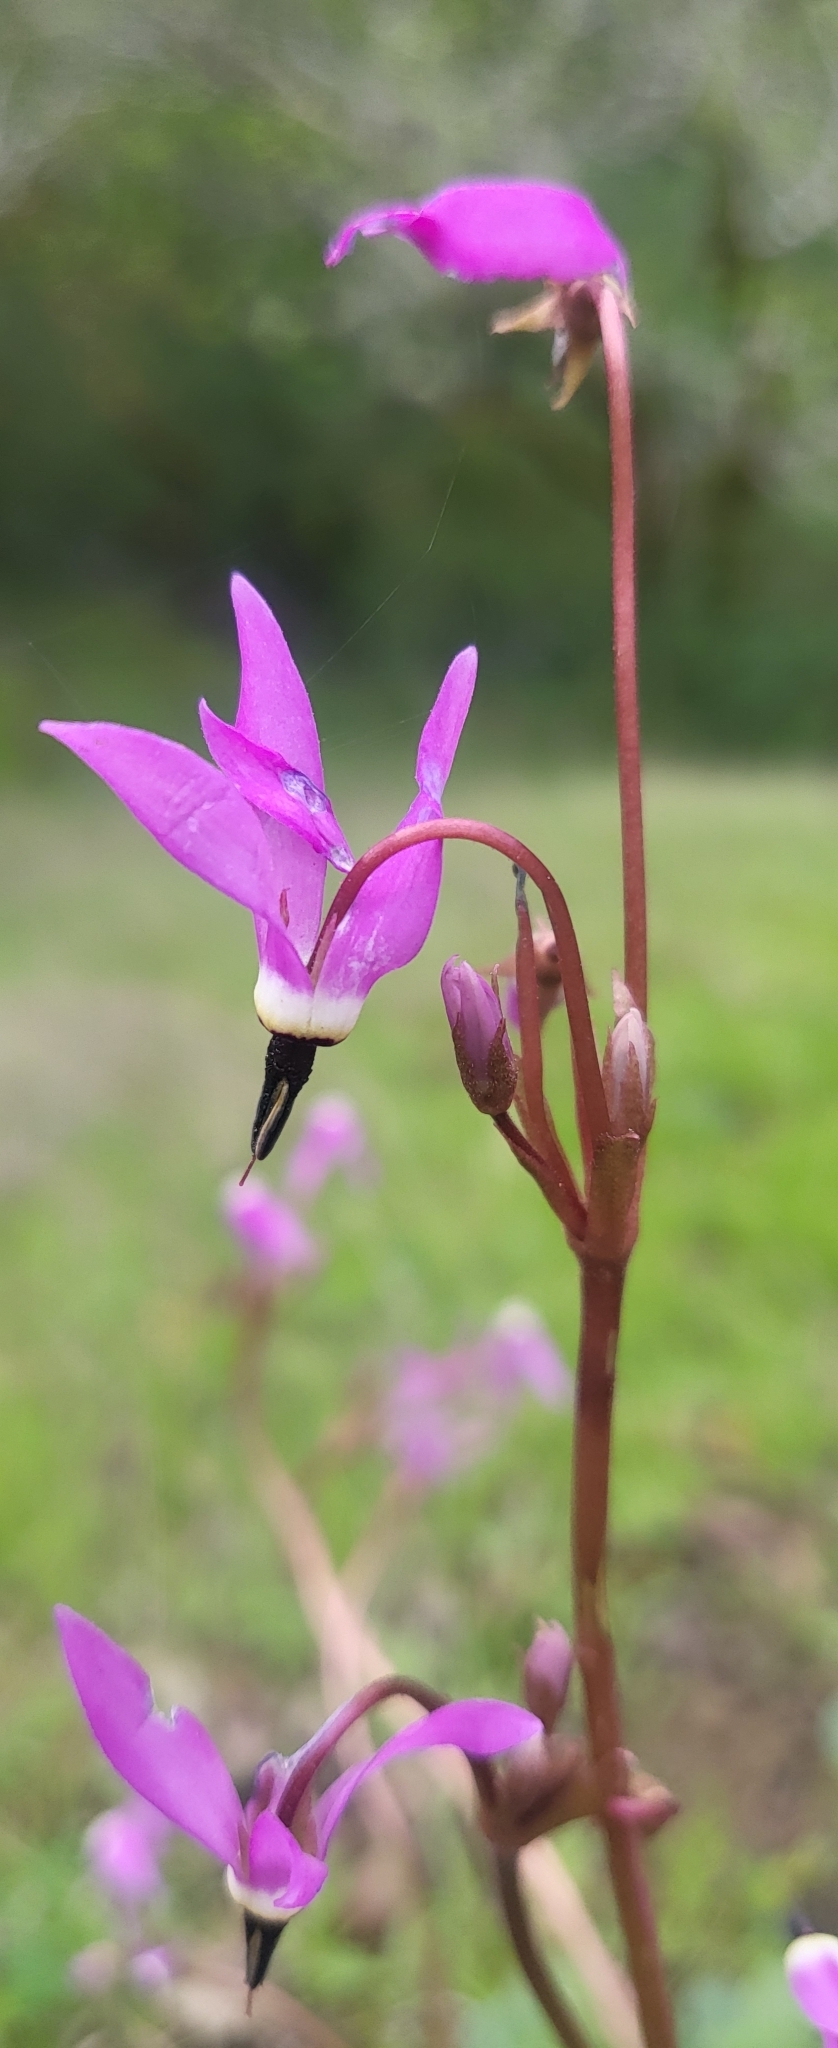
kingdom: Plantae
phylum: Tracheophyta
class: Magnoliopsida
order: Ericales
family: Primulaceae
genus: Dodecatheon
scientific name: Dodecatheon hendersonii
